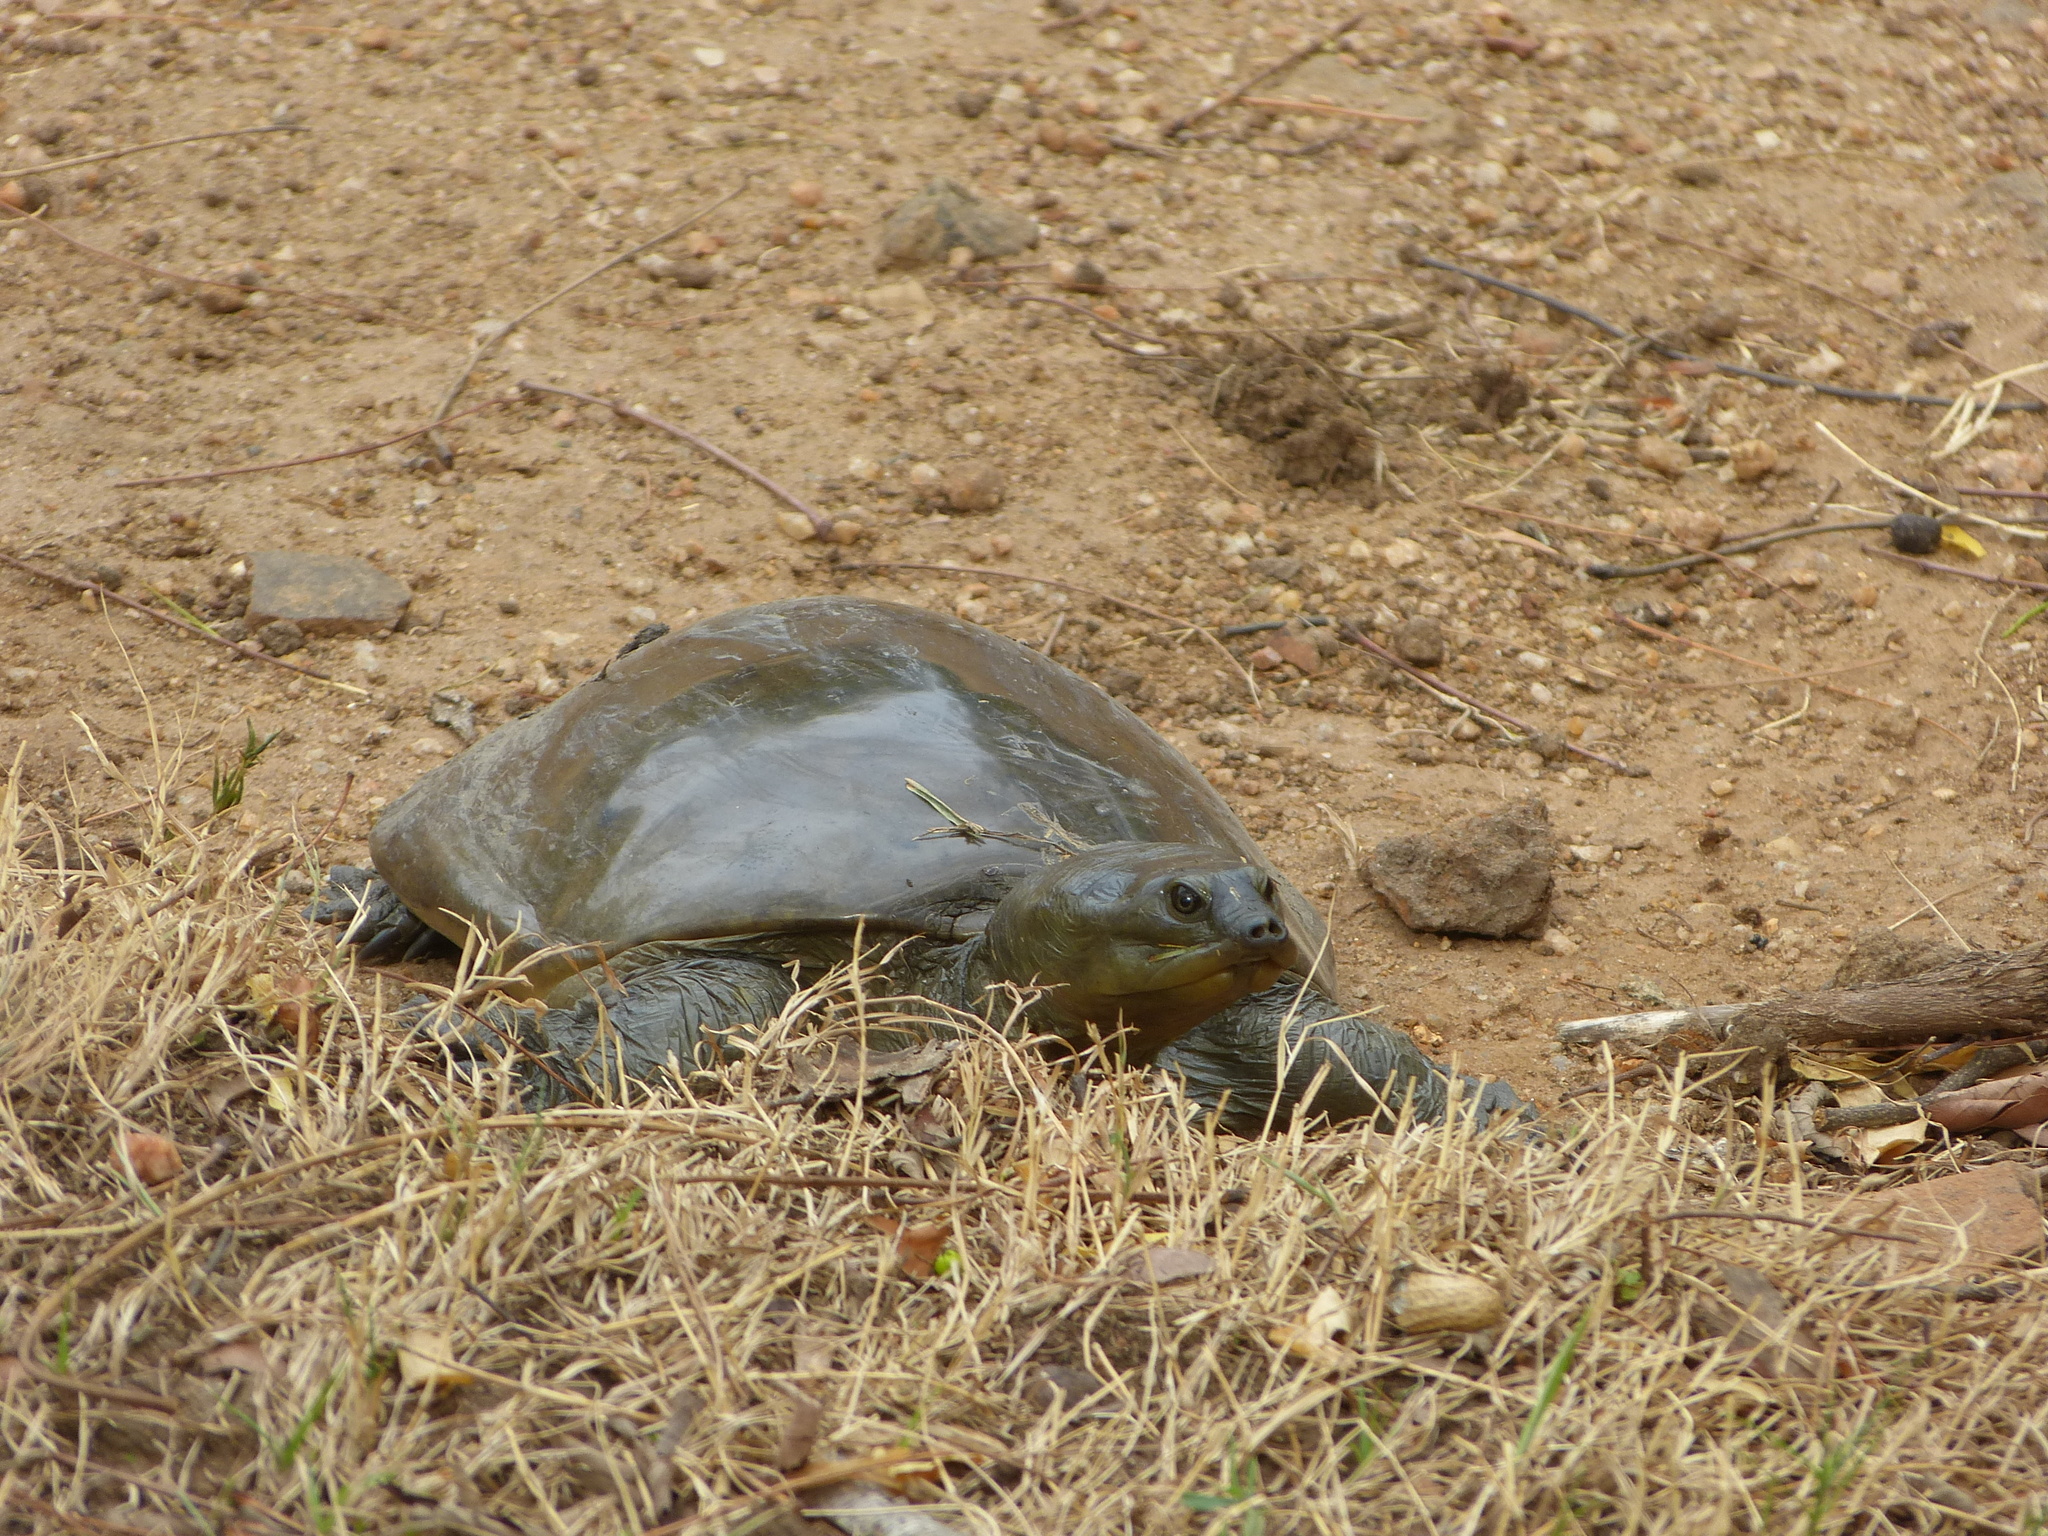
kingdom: Animalia
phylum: Chordata
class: Testudines
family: Trionychidae
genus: Lissemys
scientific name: Lissemys ceylonensis
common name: Sri lankan flapshell turtle
